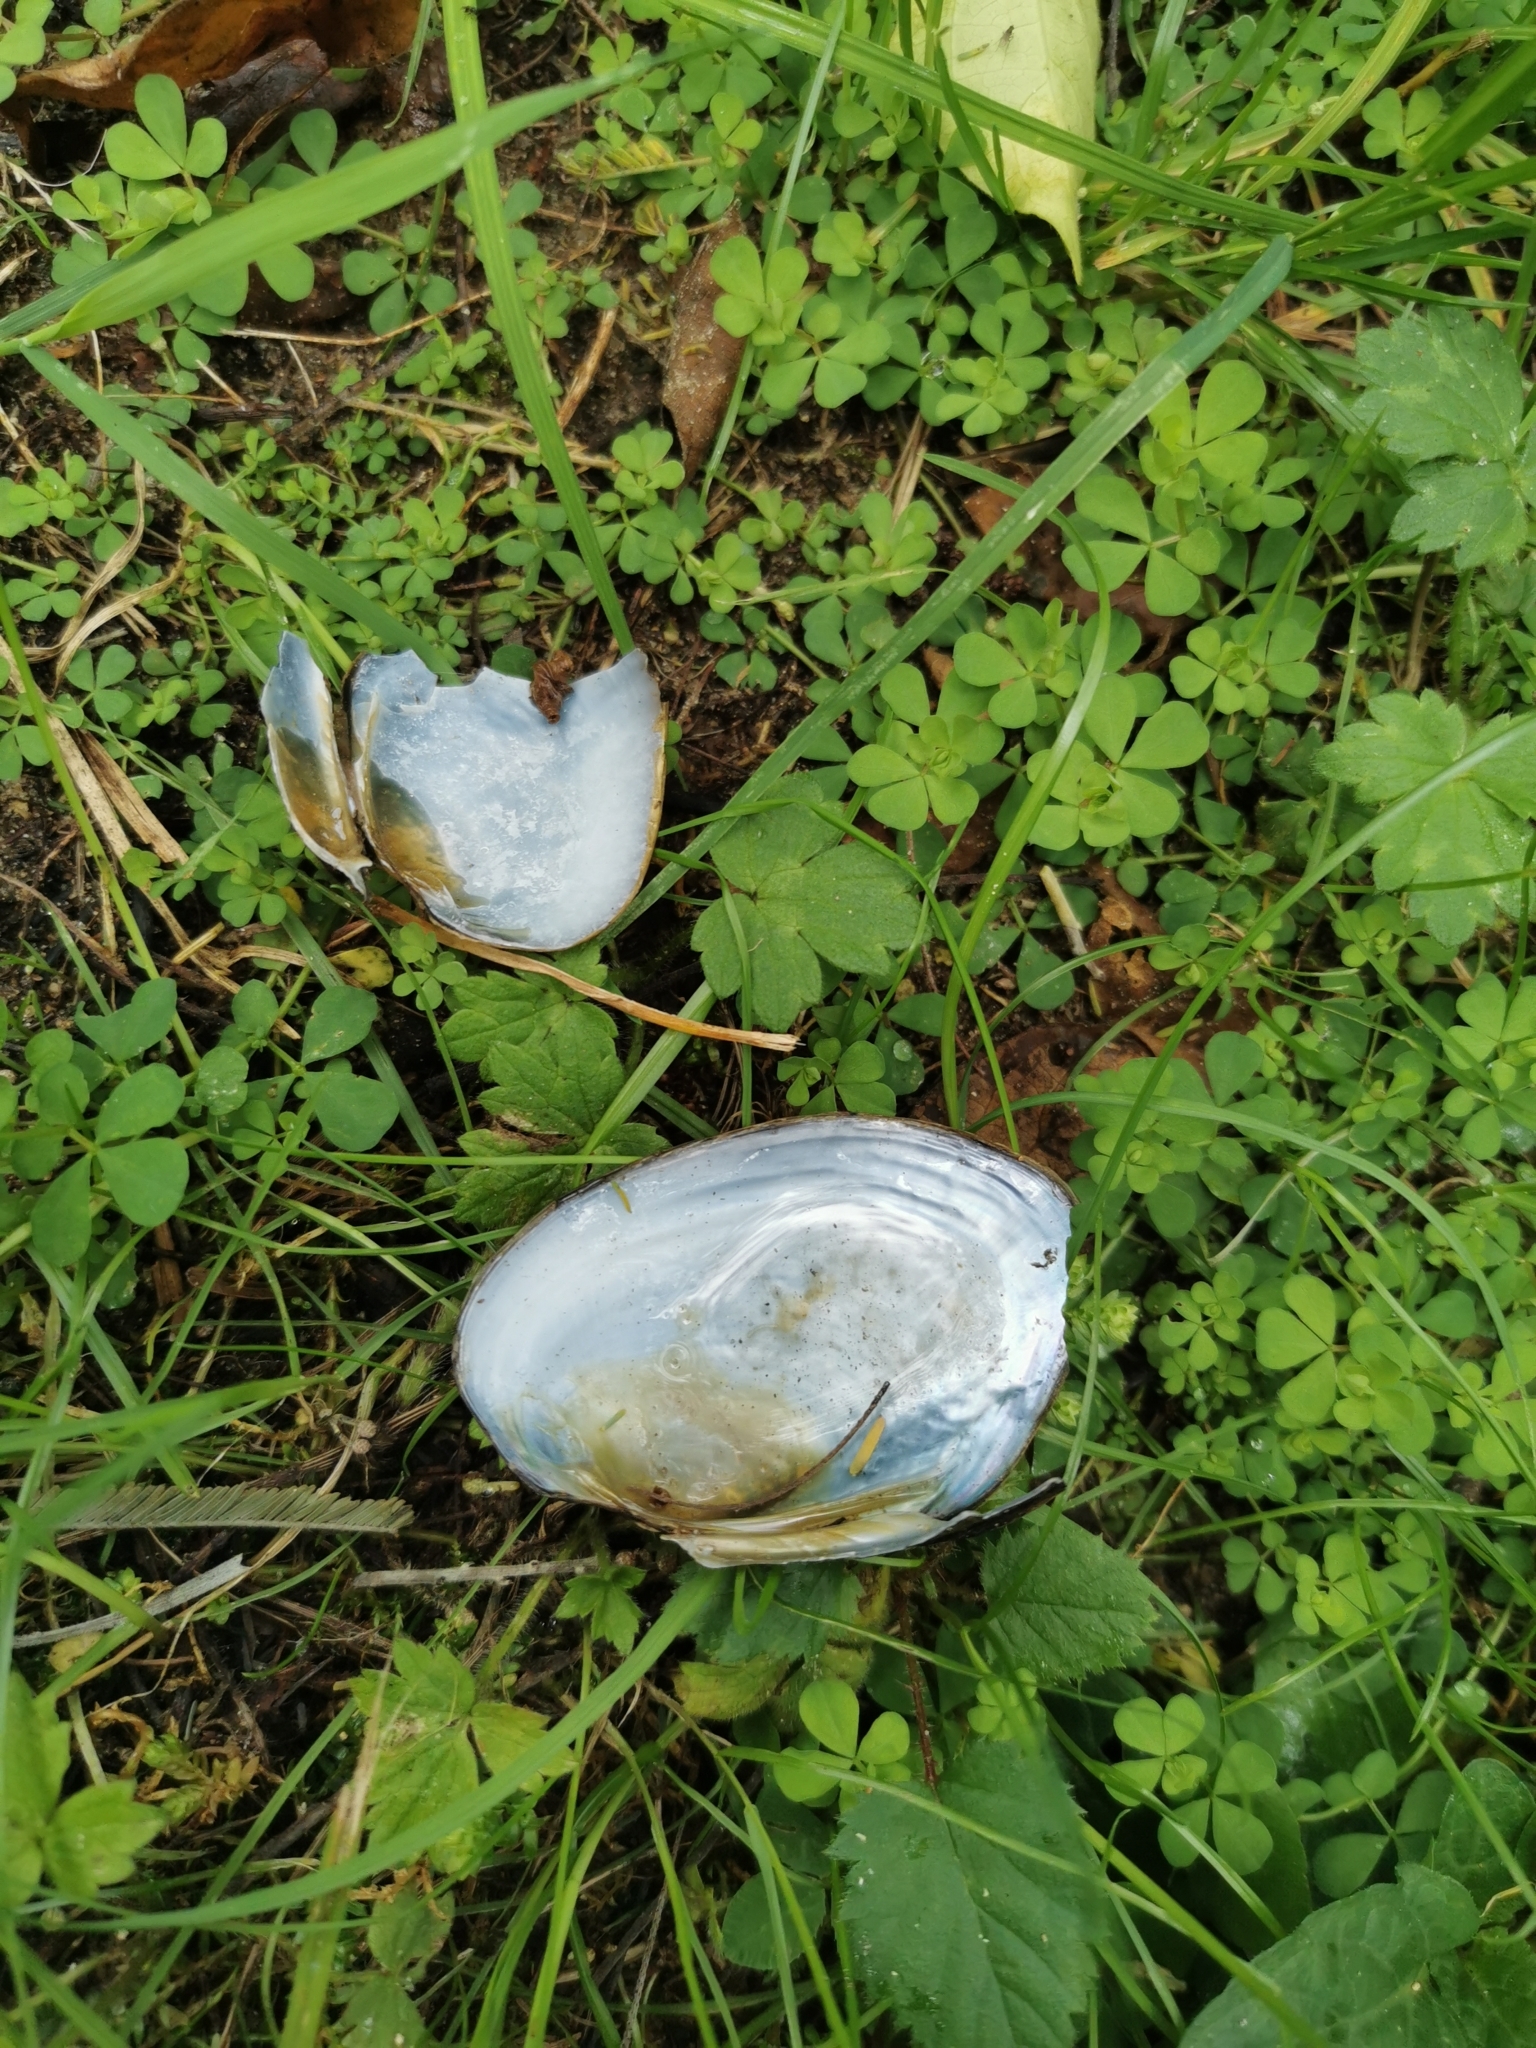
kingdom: Animalia
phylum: Mollusca
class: Bivalvia
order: Unionida
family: Hyriidae
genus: Echyridella
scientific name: Echyridella menziesii
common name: New zealand freshwater mussel
